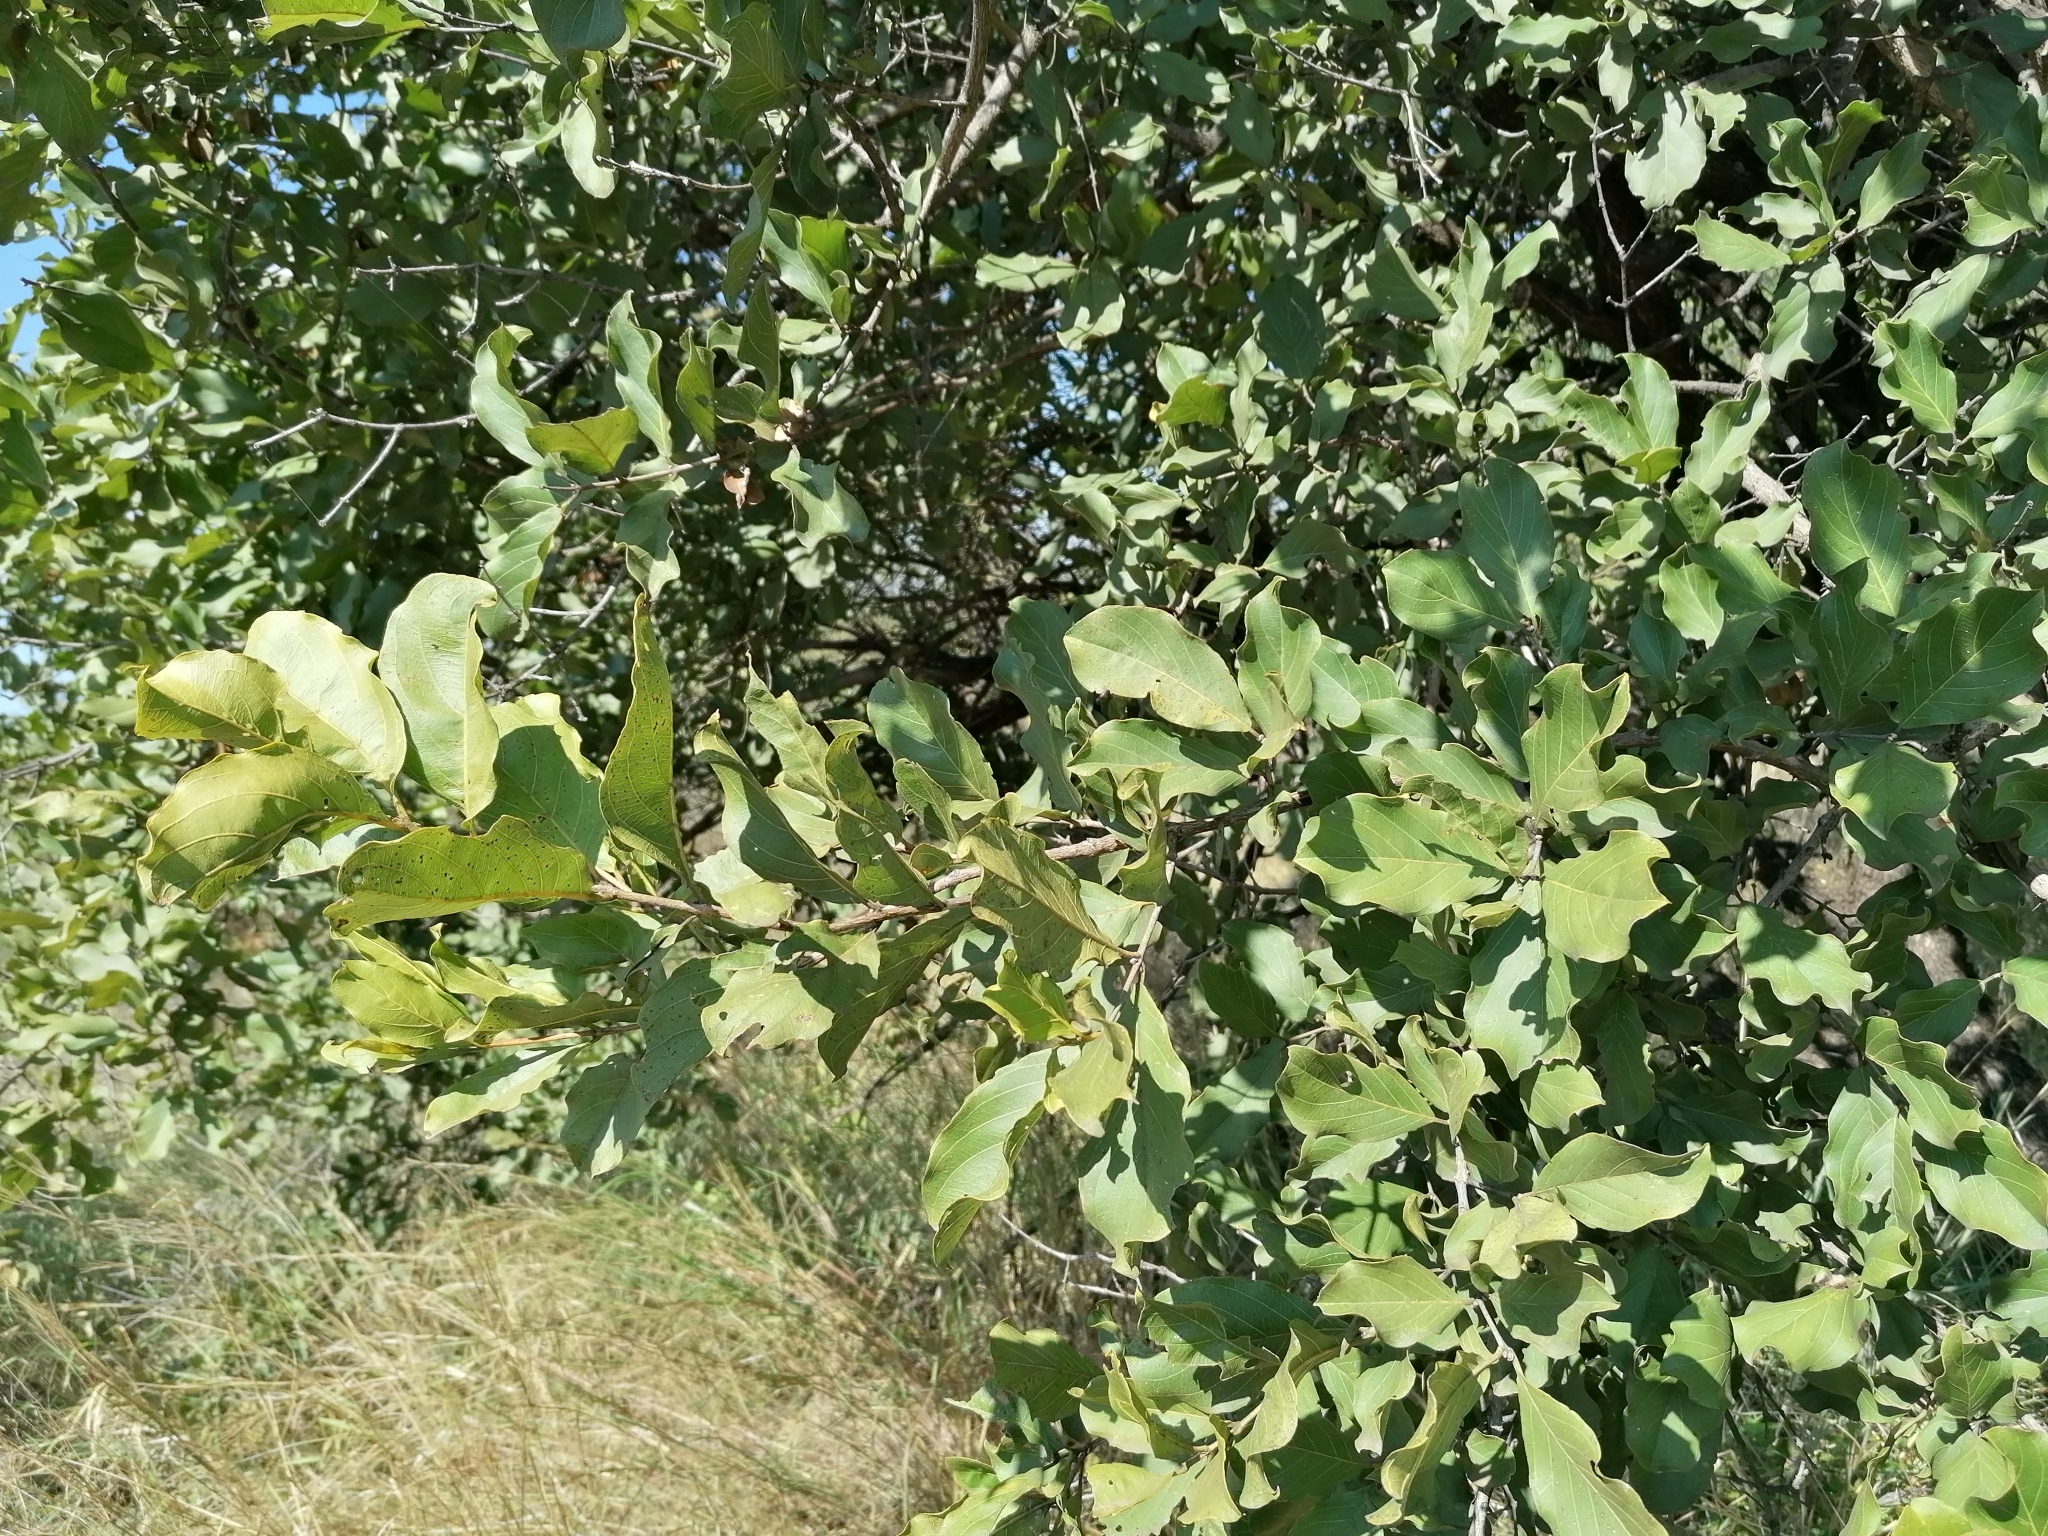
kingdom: Plantae
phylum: Tracheophyta
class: Magnoliopsida
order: Myrtales
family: Combretaceae
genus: Combretum
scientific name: Combretum apiculatum
